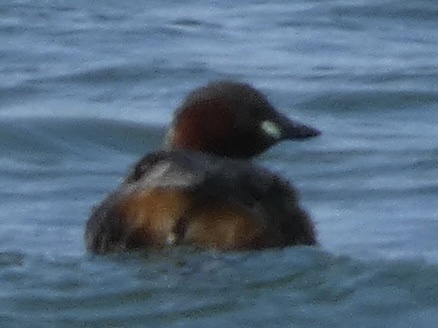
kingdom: Animalia
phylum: Chordata
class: Aves
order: Podicipediformes
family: Podicipedidae
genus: Tachybaptus
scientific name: Tachybaptus ruficollis
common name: Little grebe
